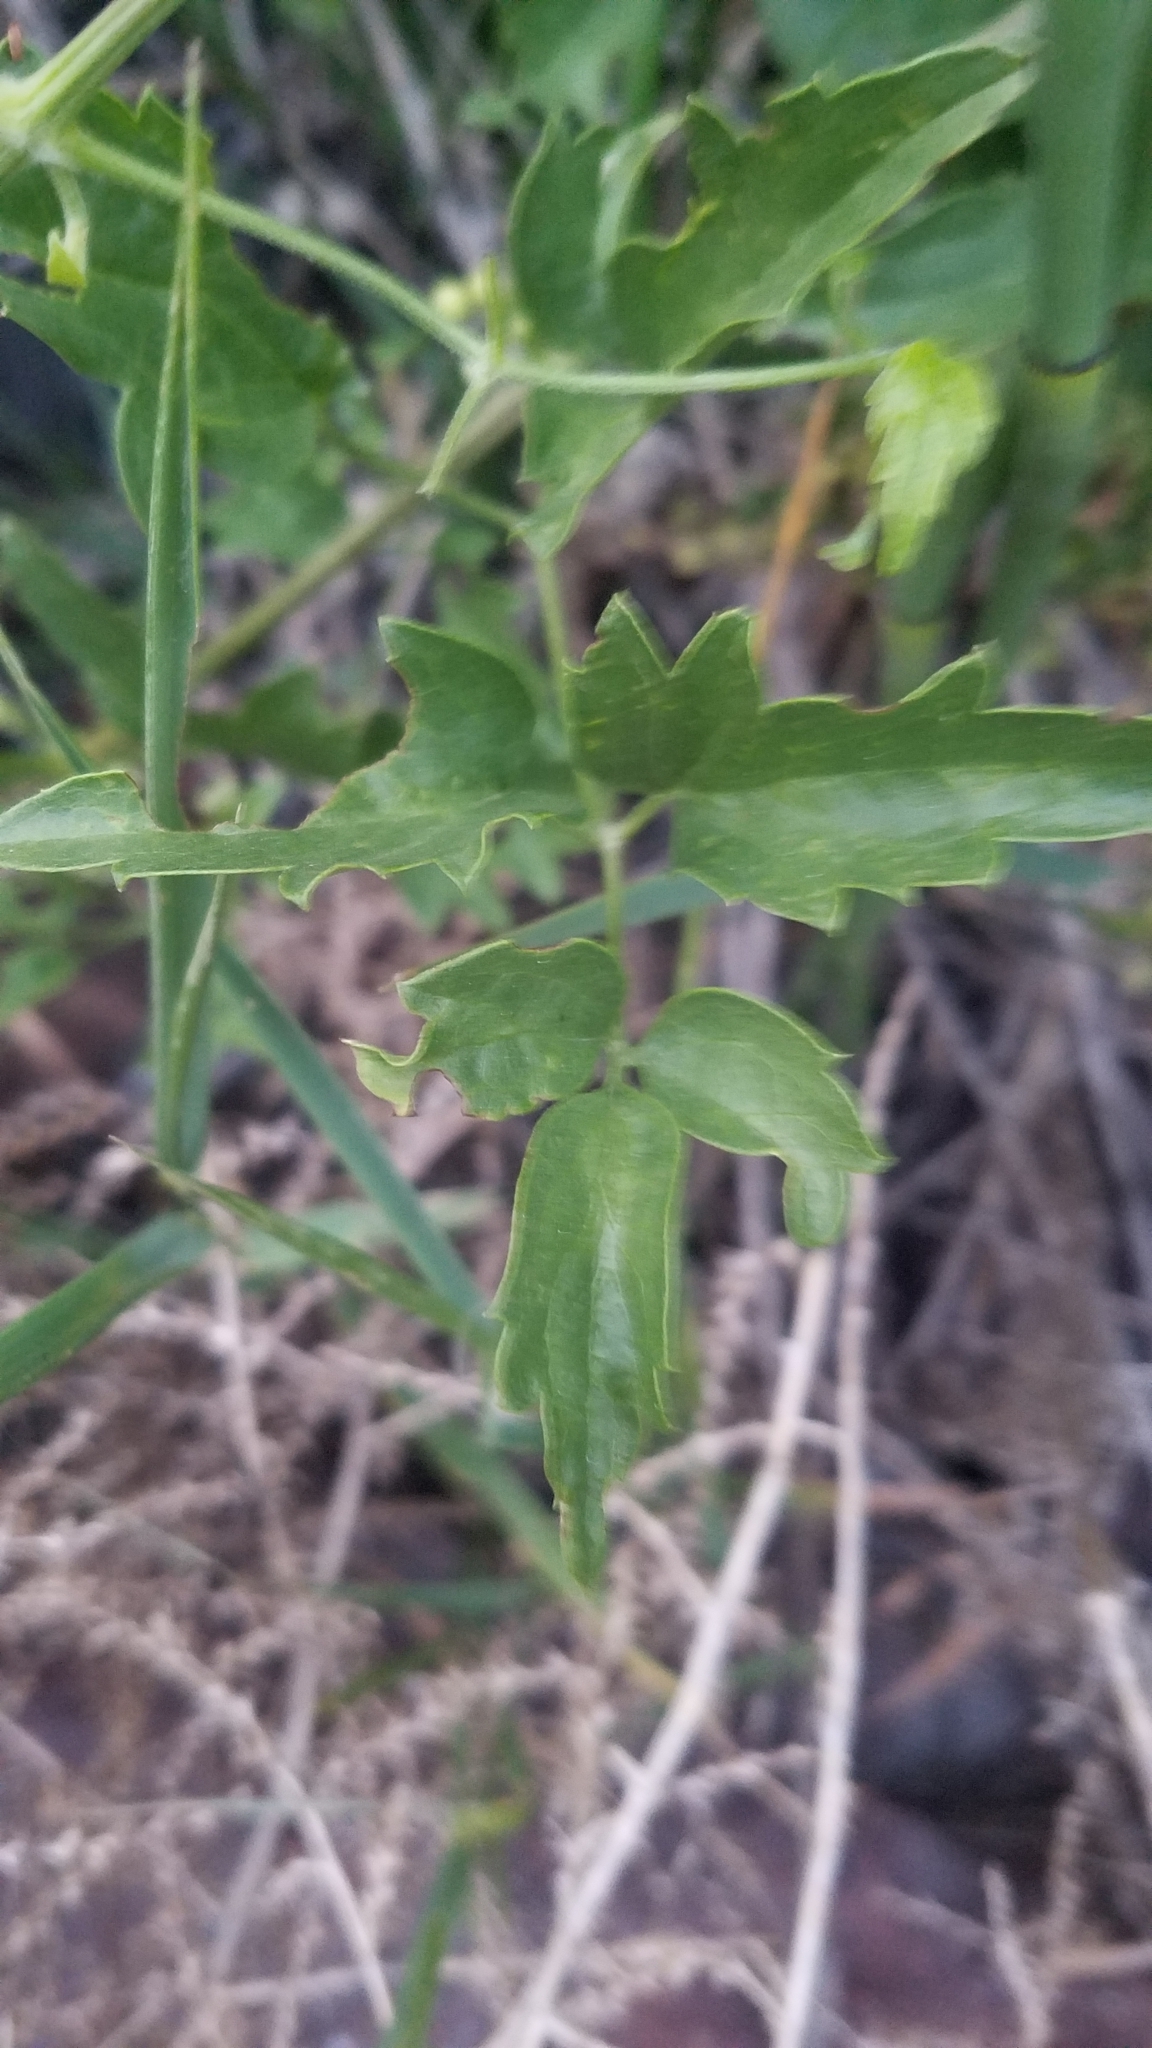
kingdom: Plantae
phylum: Tracheophyta
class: Magnoliopsida
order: Ranunculales
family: Ranunculaceae
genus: Clematis
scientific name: Clematis ligusticifolia
